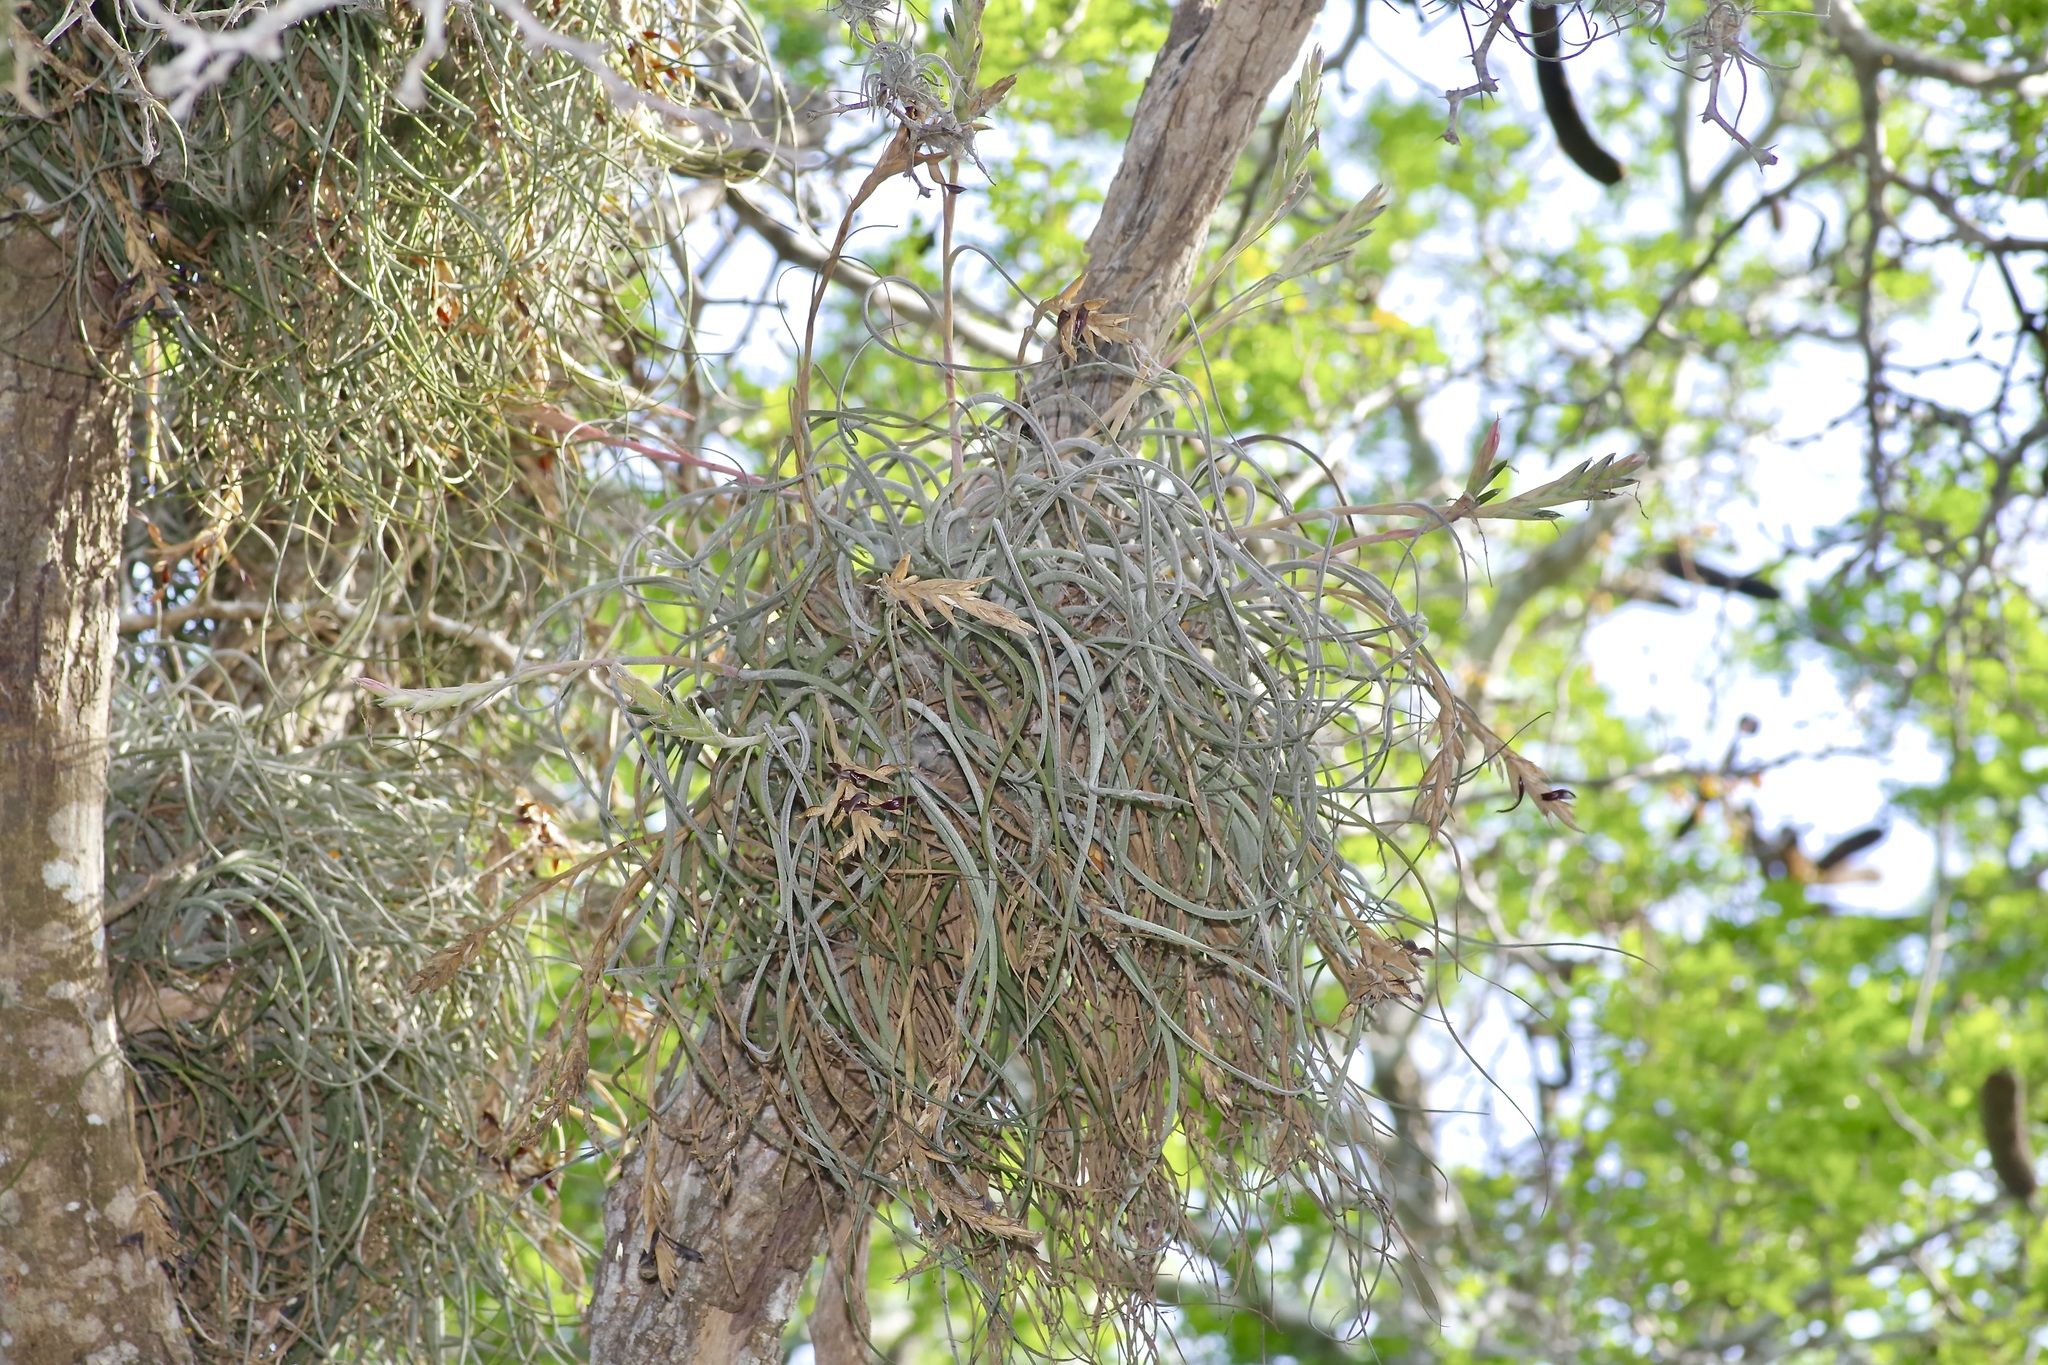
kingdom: Plantae
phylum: Tracheophyta
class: Liliopsida
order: Poales
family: Bromeliaceae
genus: Tillandsia
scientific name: Tillandsia baileyi
